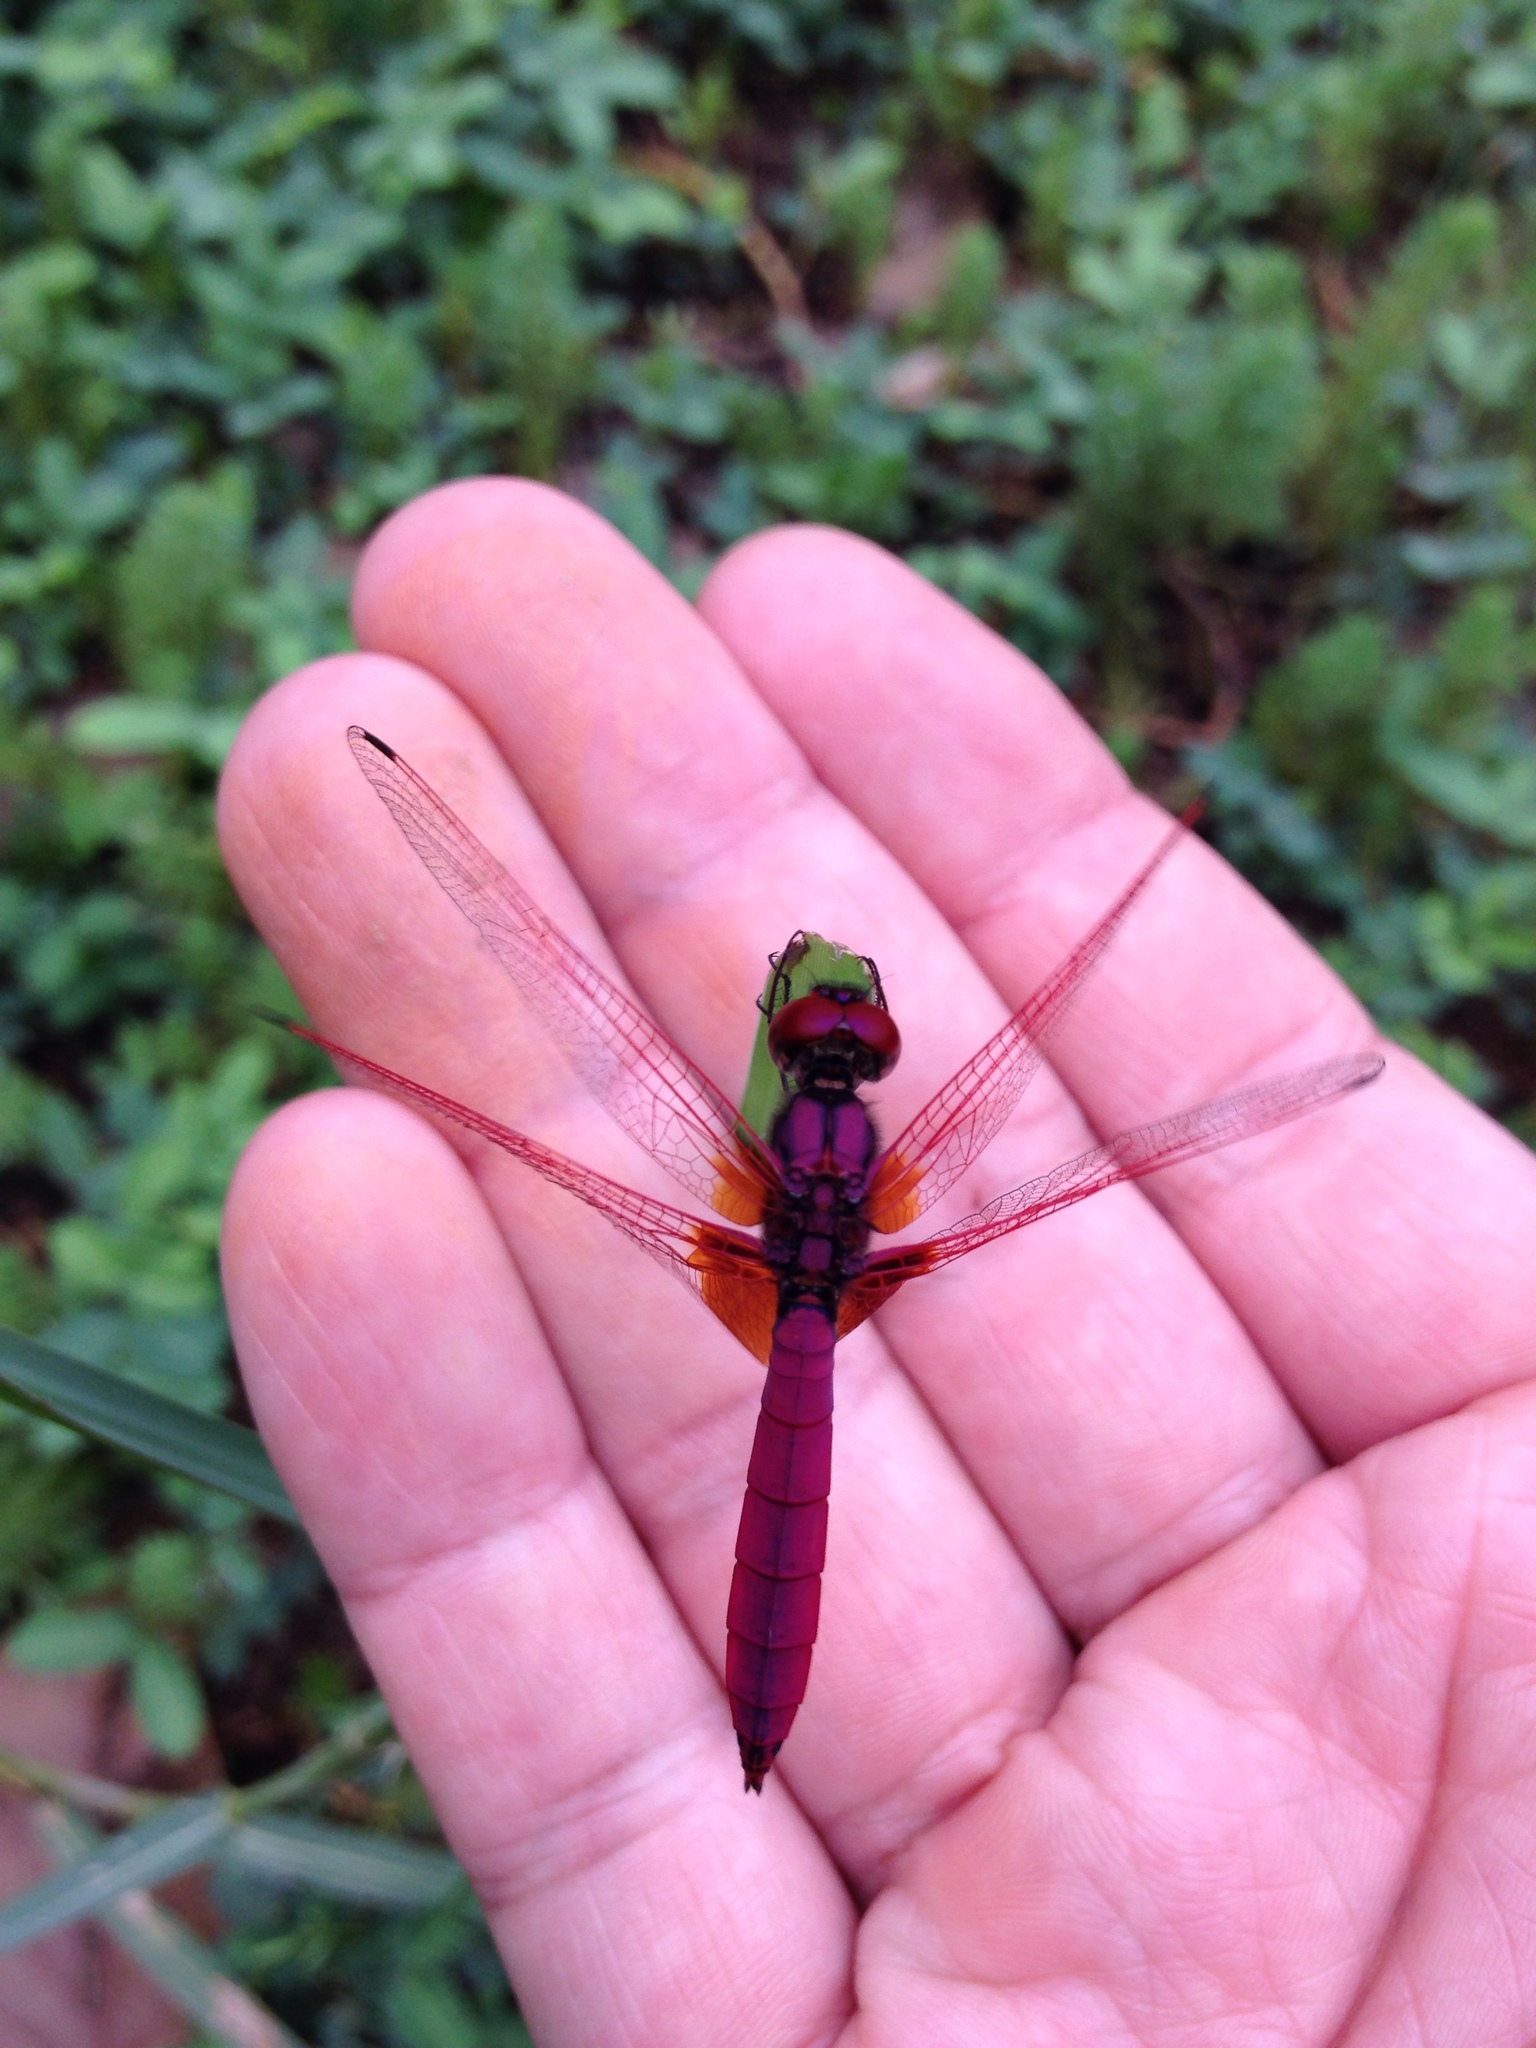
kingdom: Animalia
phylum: Arthropoda
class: Insecta
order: Odonata
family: Libellulidae
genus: Trithemis
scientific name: Trithemis aurora
